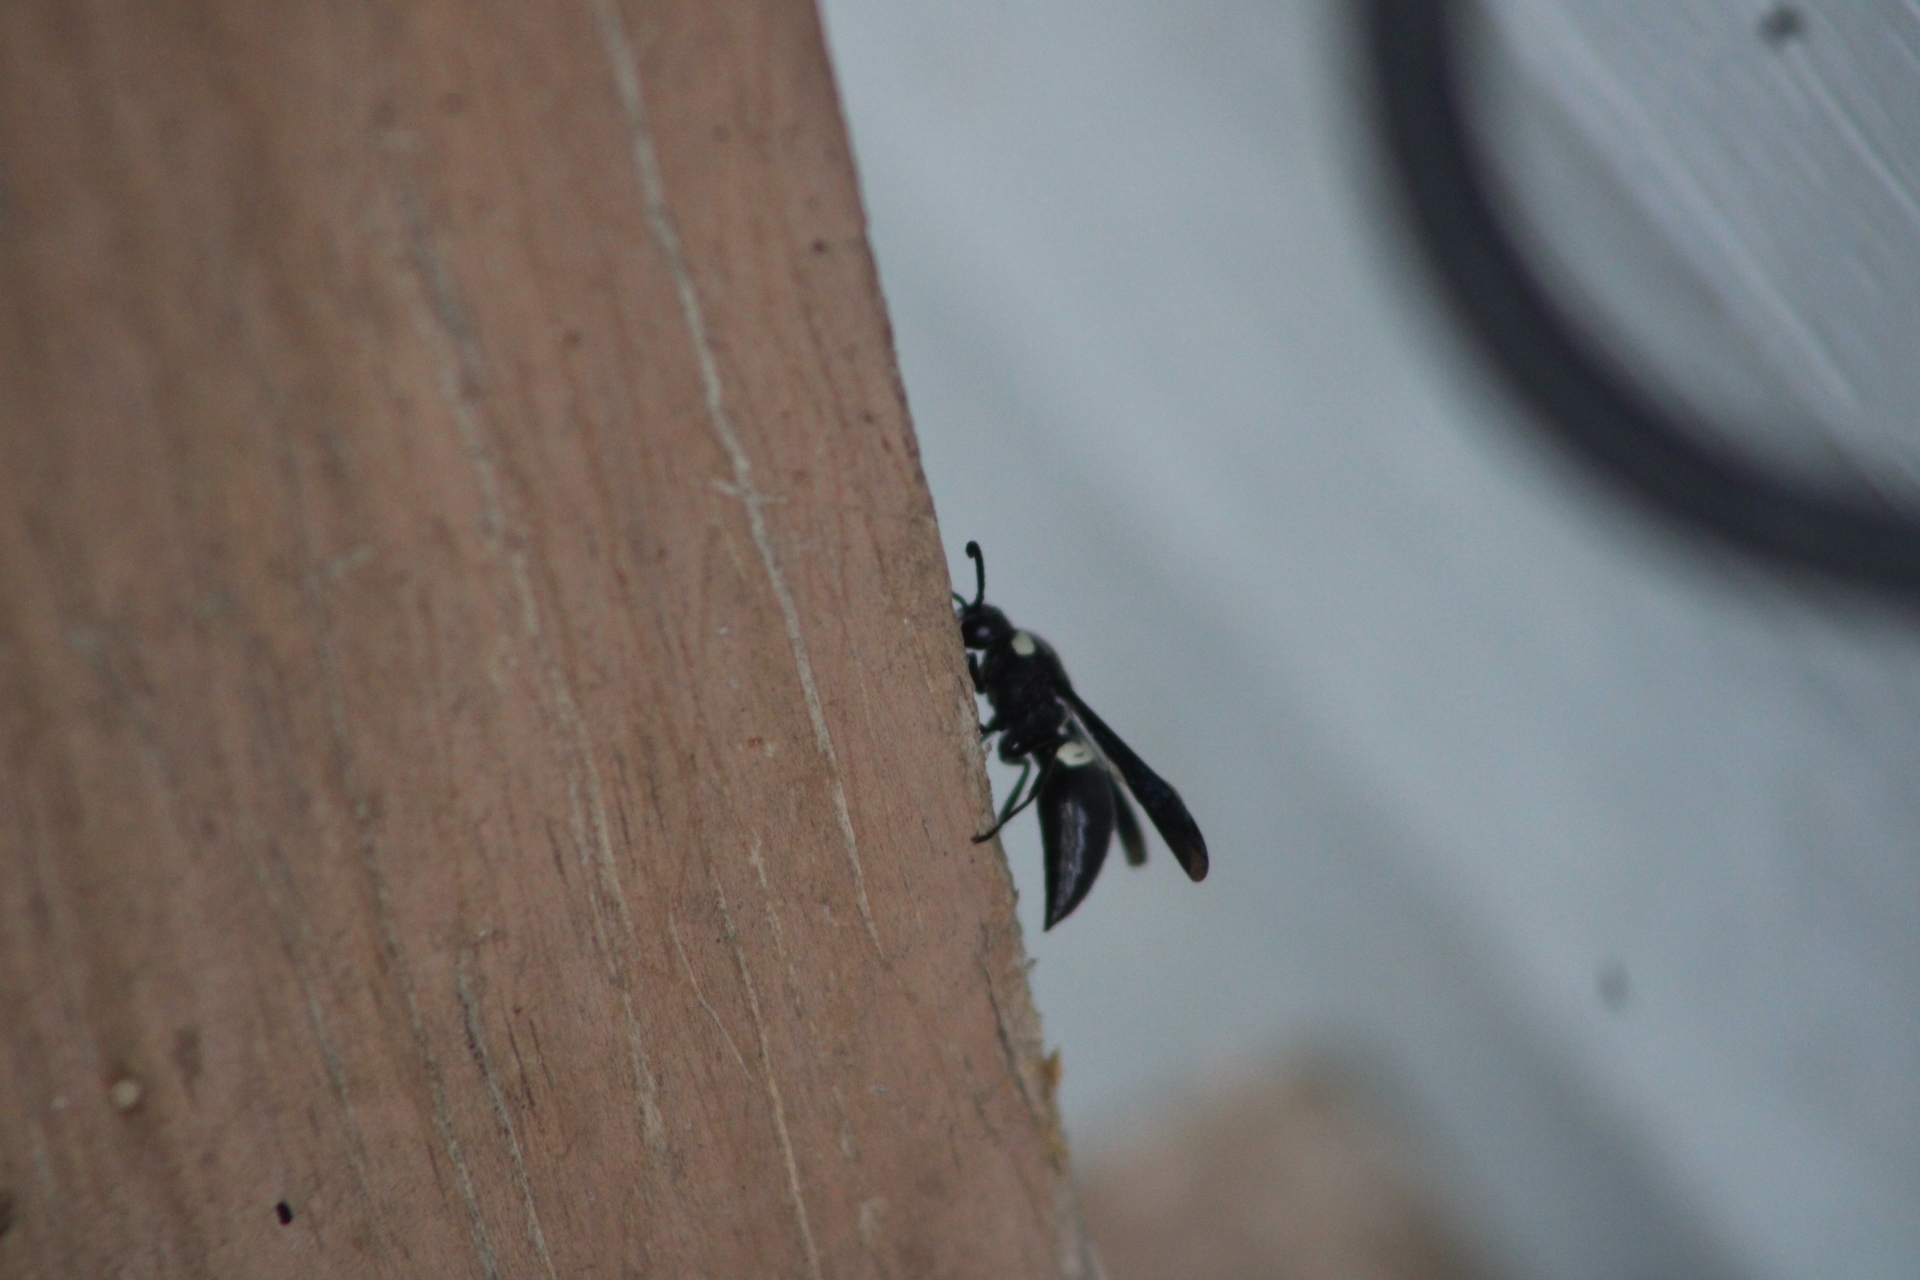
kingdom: Animalia
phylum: Arthropoda
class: Insecta
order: Hymenoptera
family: Eumenidae
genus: Monobia
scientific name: Monobia quadridens
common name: Four-toothed mason wasp
